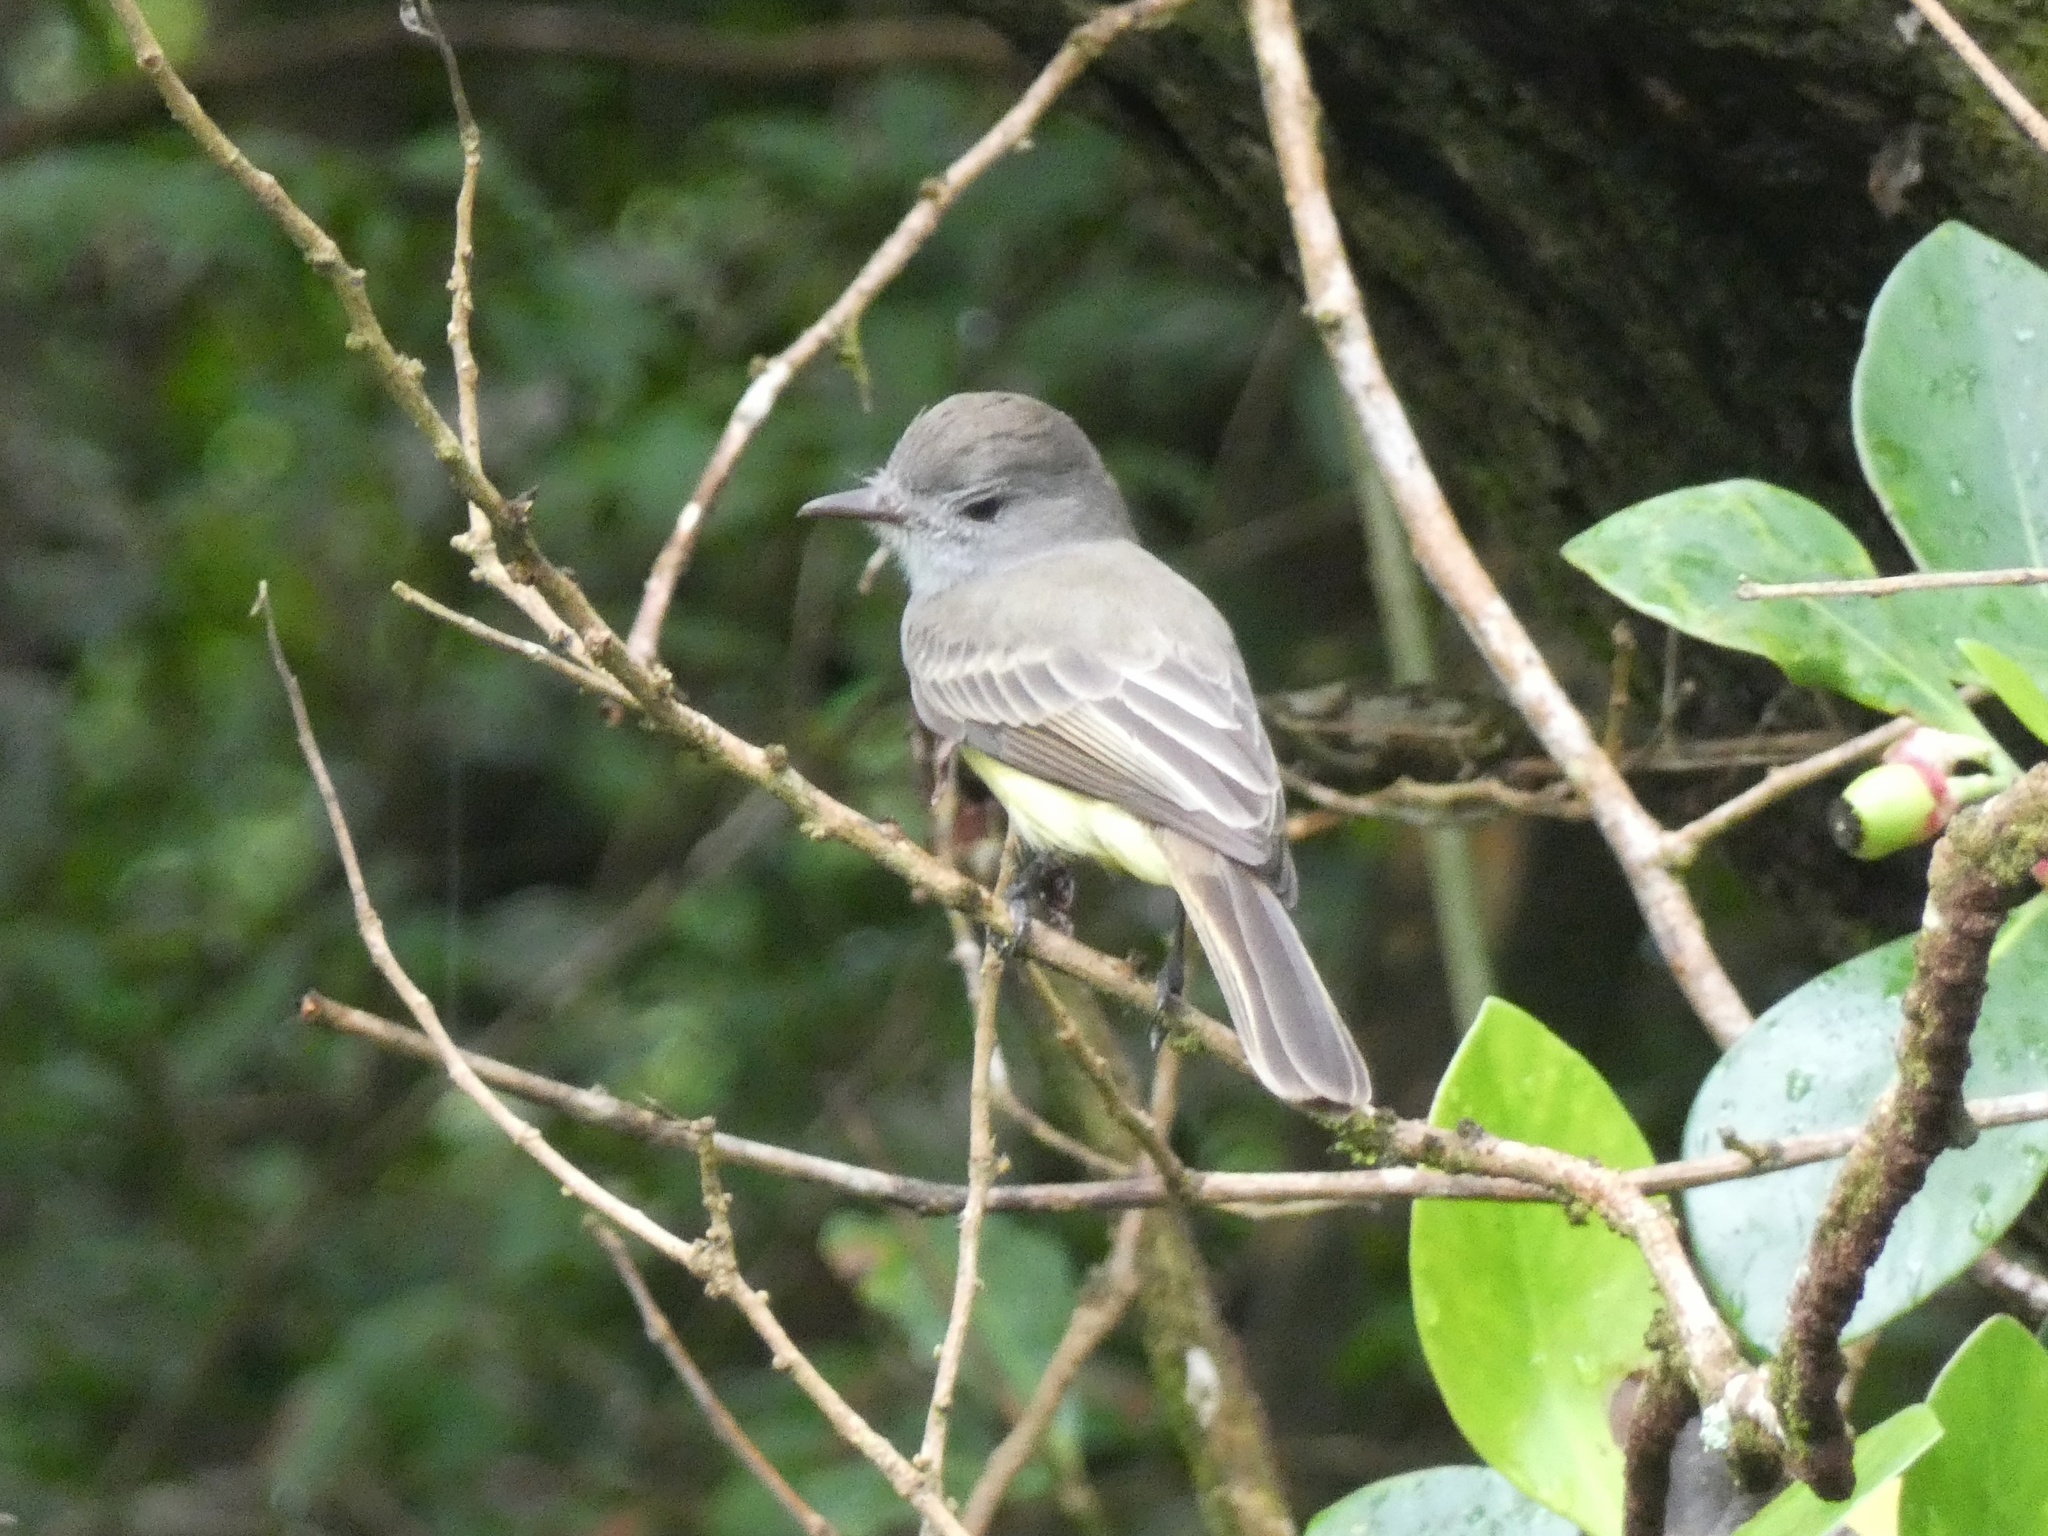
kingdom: Animalia
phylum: Chordata
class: Aves
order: Passeriformes
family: Tyrannidae
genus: Myiarchus
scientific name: Myiarchus panamensis
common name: Panama flycatcher
